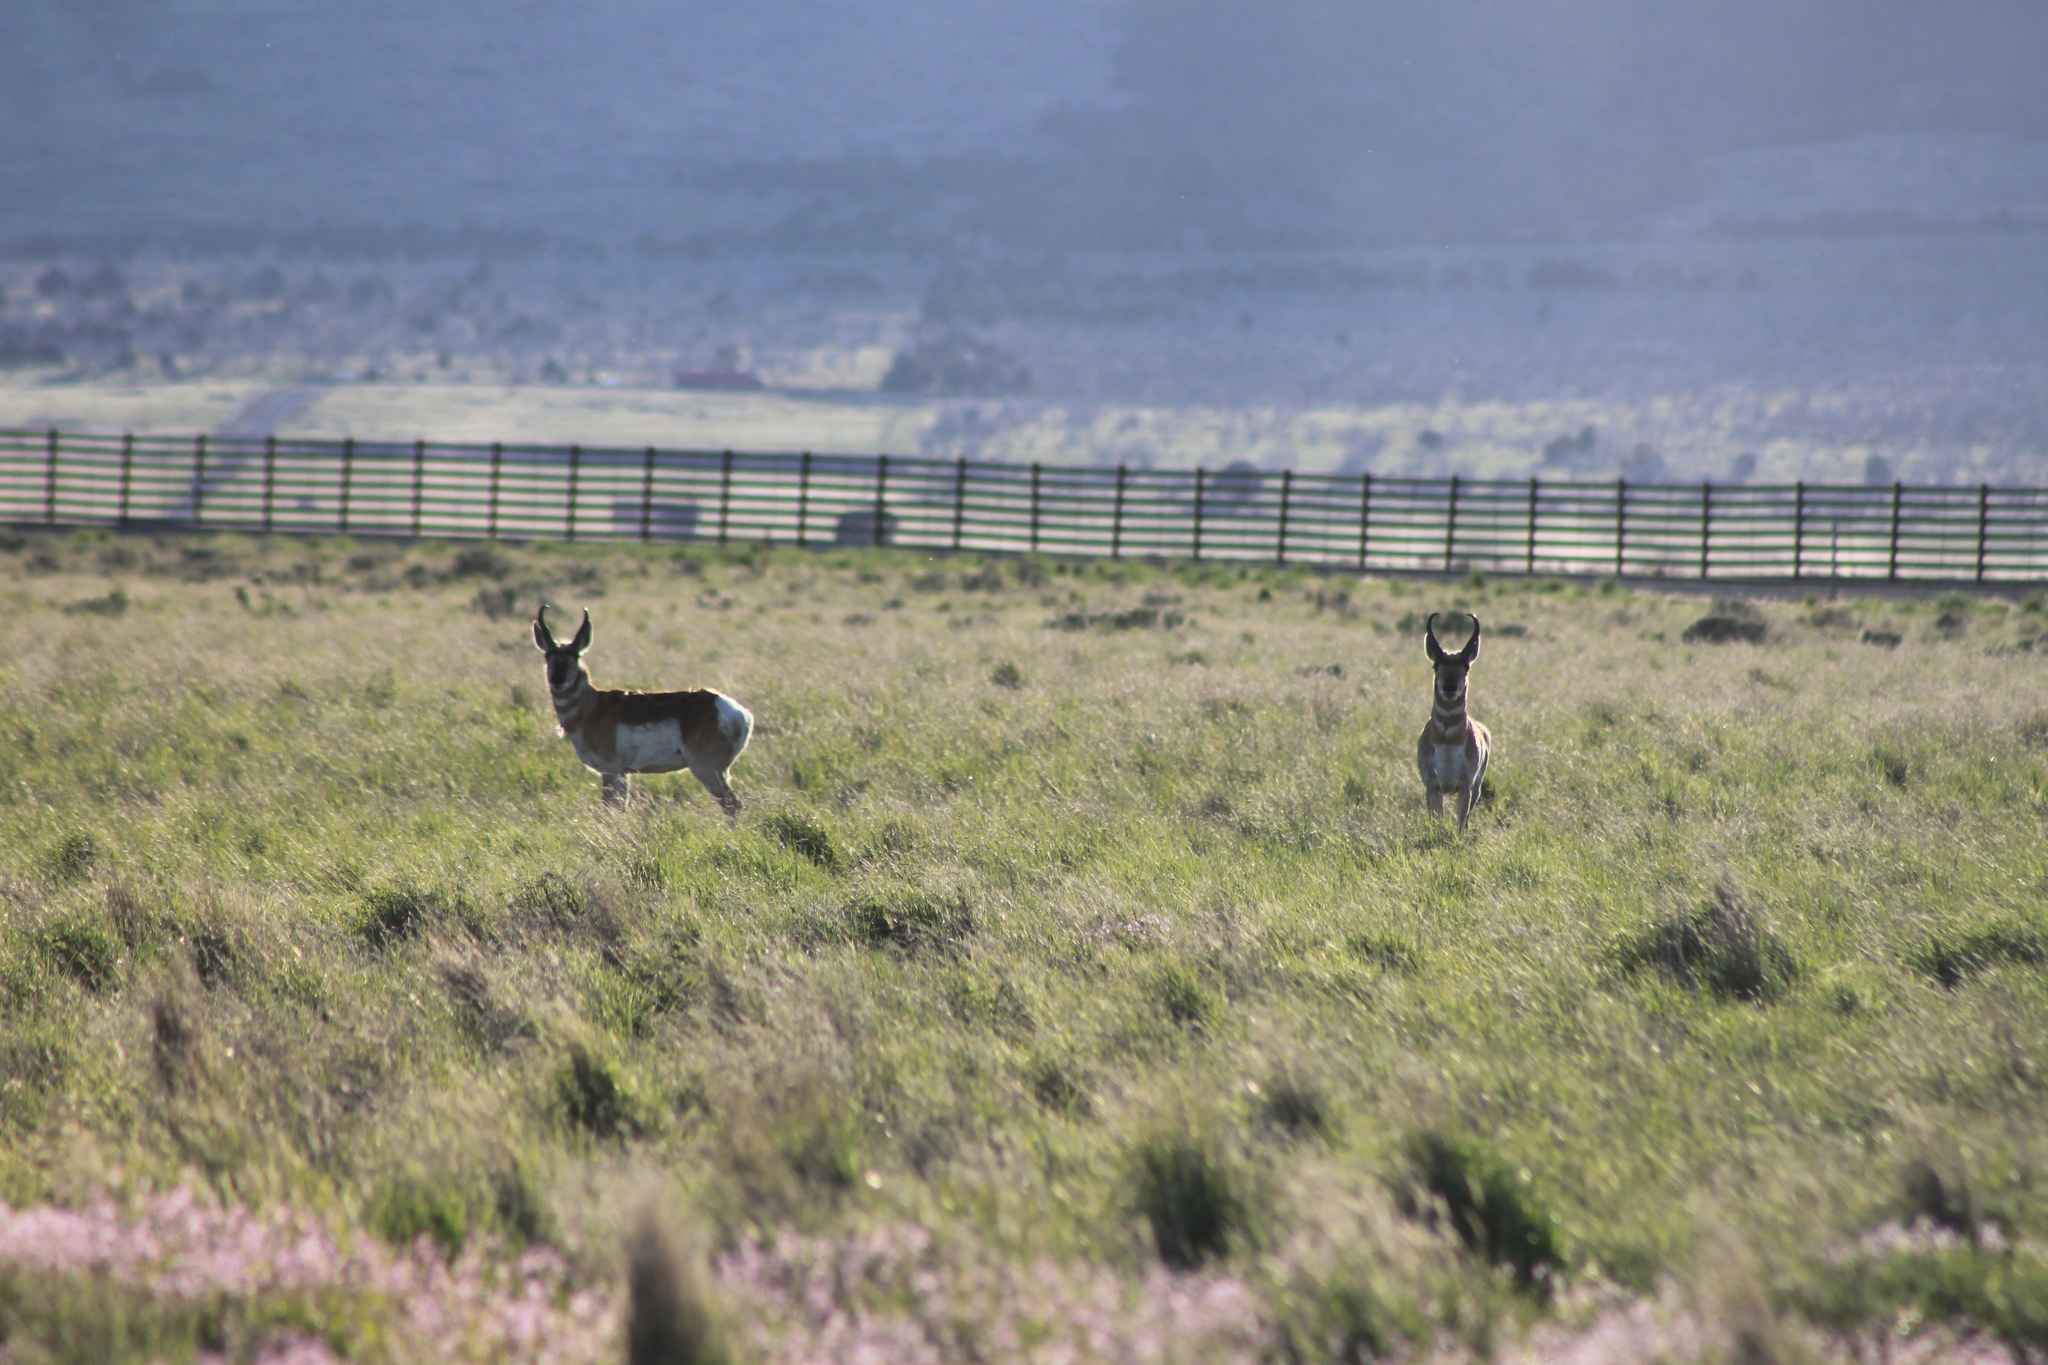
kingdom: Animalia
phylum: Chordata
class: Mammalia
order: Artiodactyla
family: Antilocapridae
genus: Antilocapra
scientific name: Antilocapra americana
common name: Pronghorn
